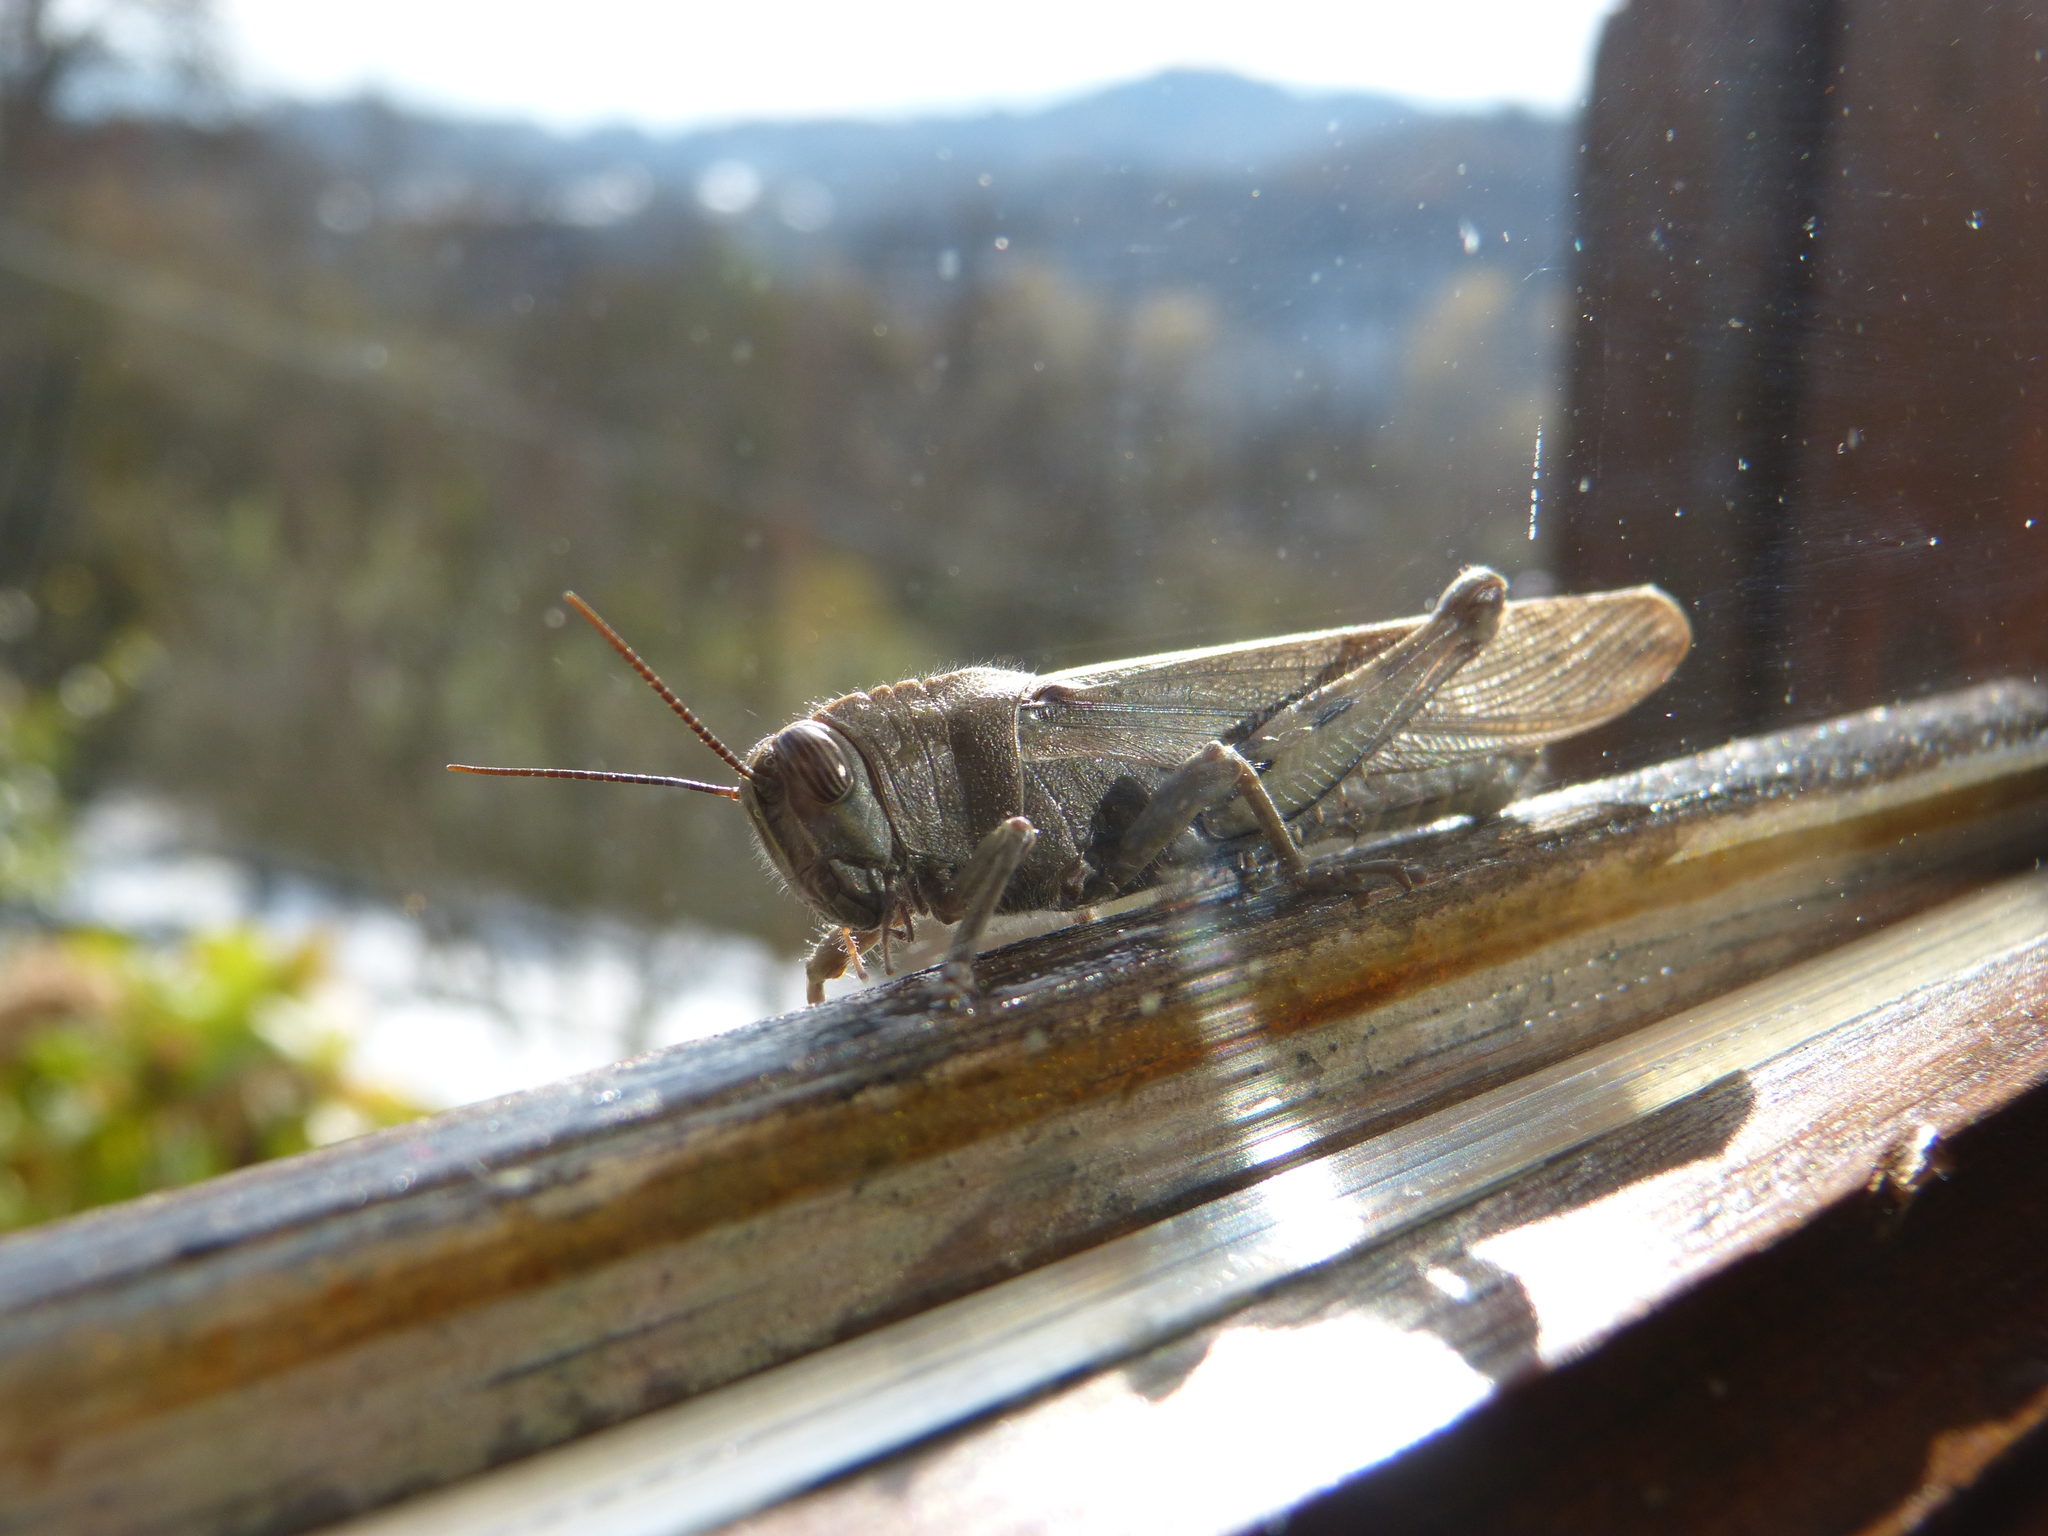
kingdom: Animalia
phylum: Arthropoda
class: Insecta
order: Orthoptera
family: Acrididae
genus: Anacridium
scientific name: Anacridium aegyptium
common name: Egyptian grasshopper
